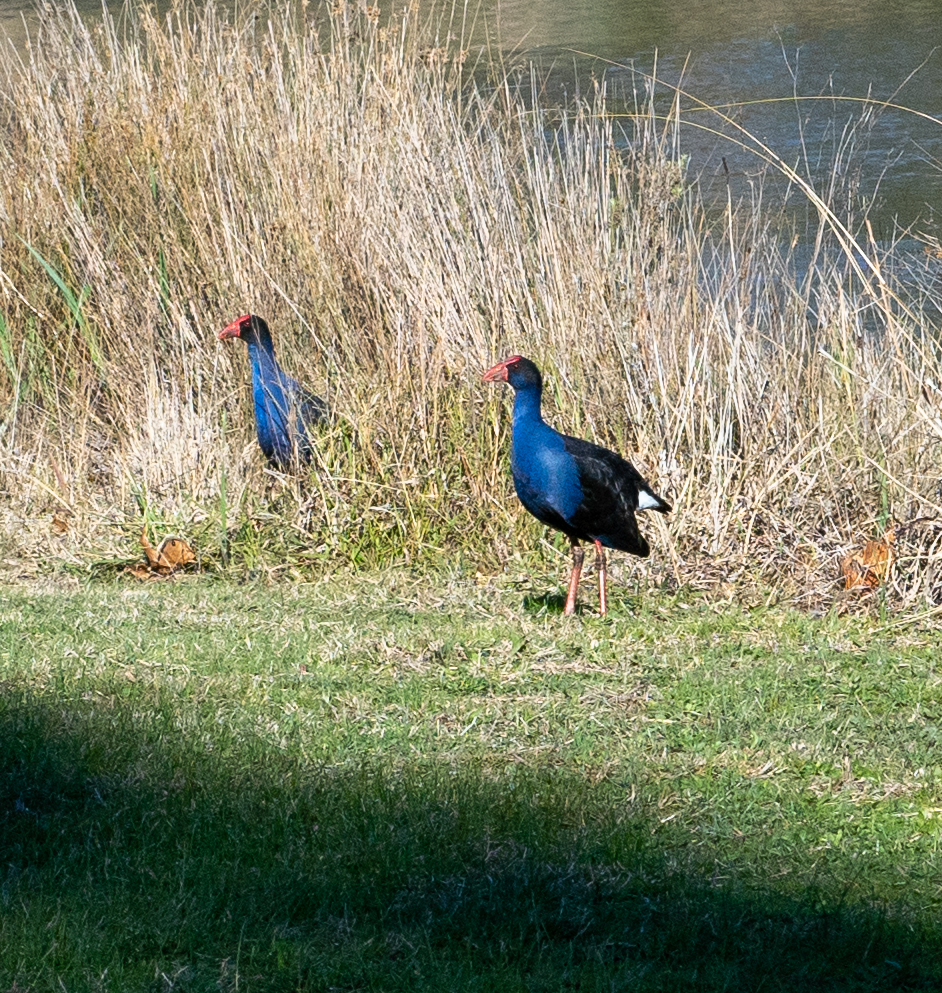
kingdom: Animalia
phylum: Chordata
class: Aves
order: Gruiformes
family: Rallidae
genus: Porphyrio
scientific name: Porphyrio melanotus
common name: Australasian swamphen
